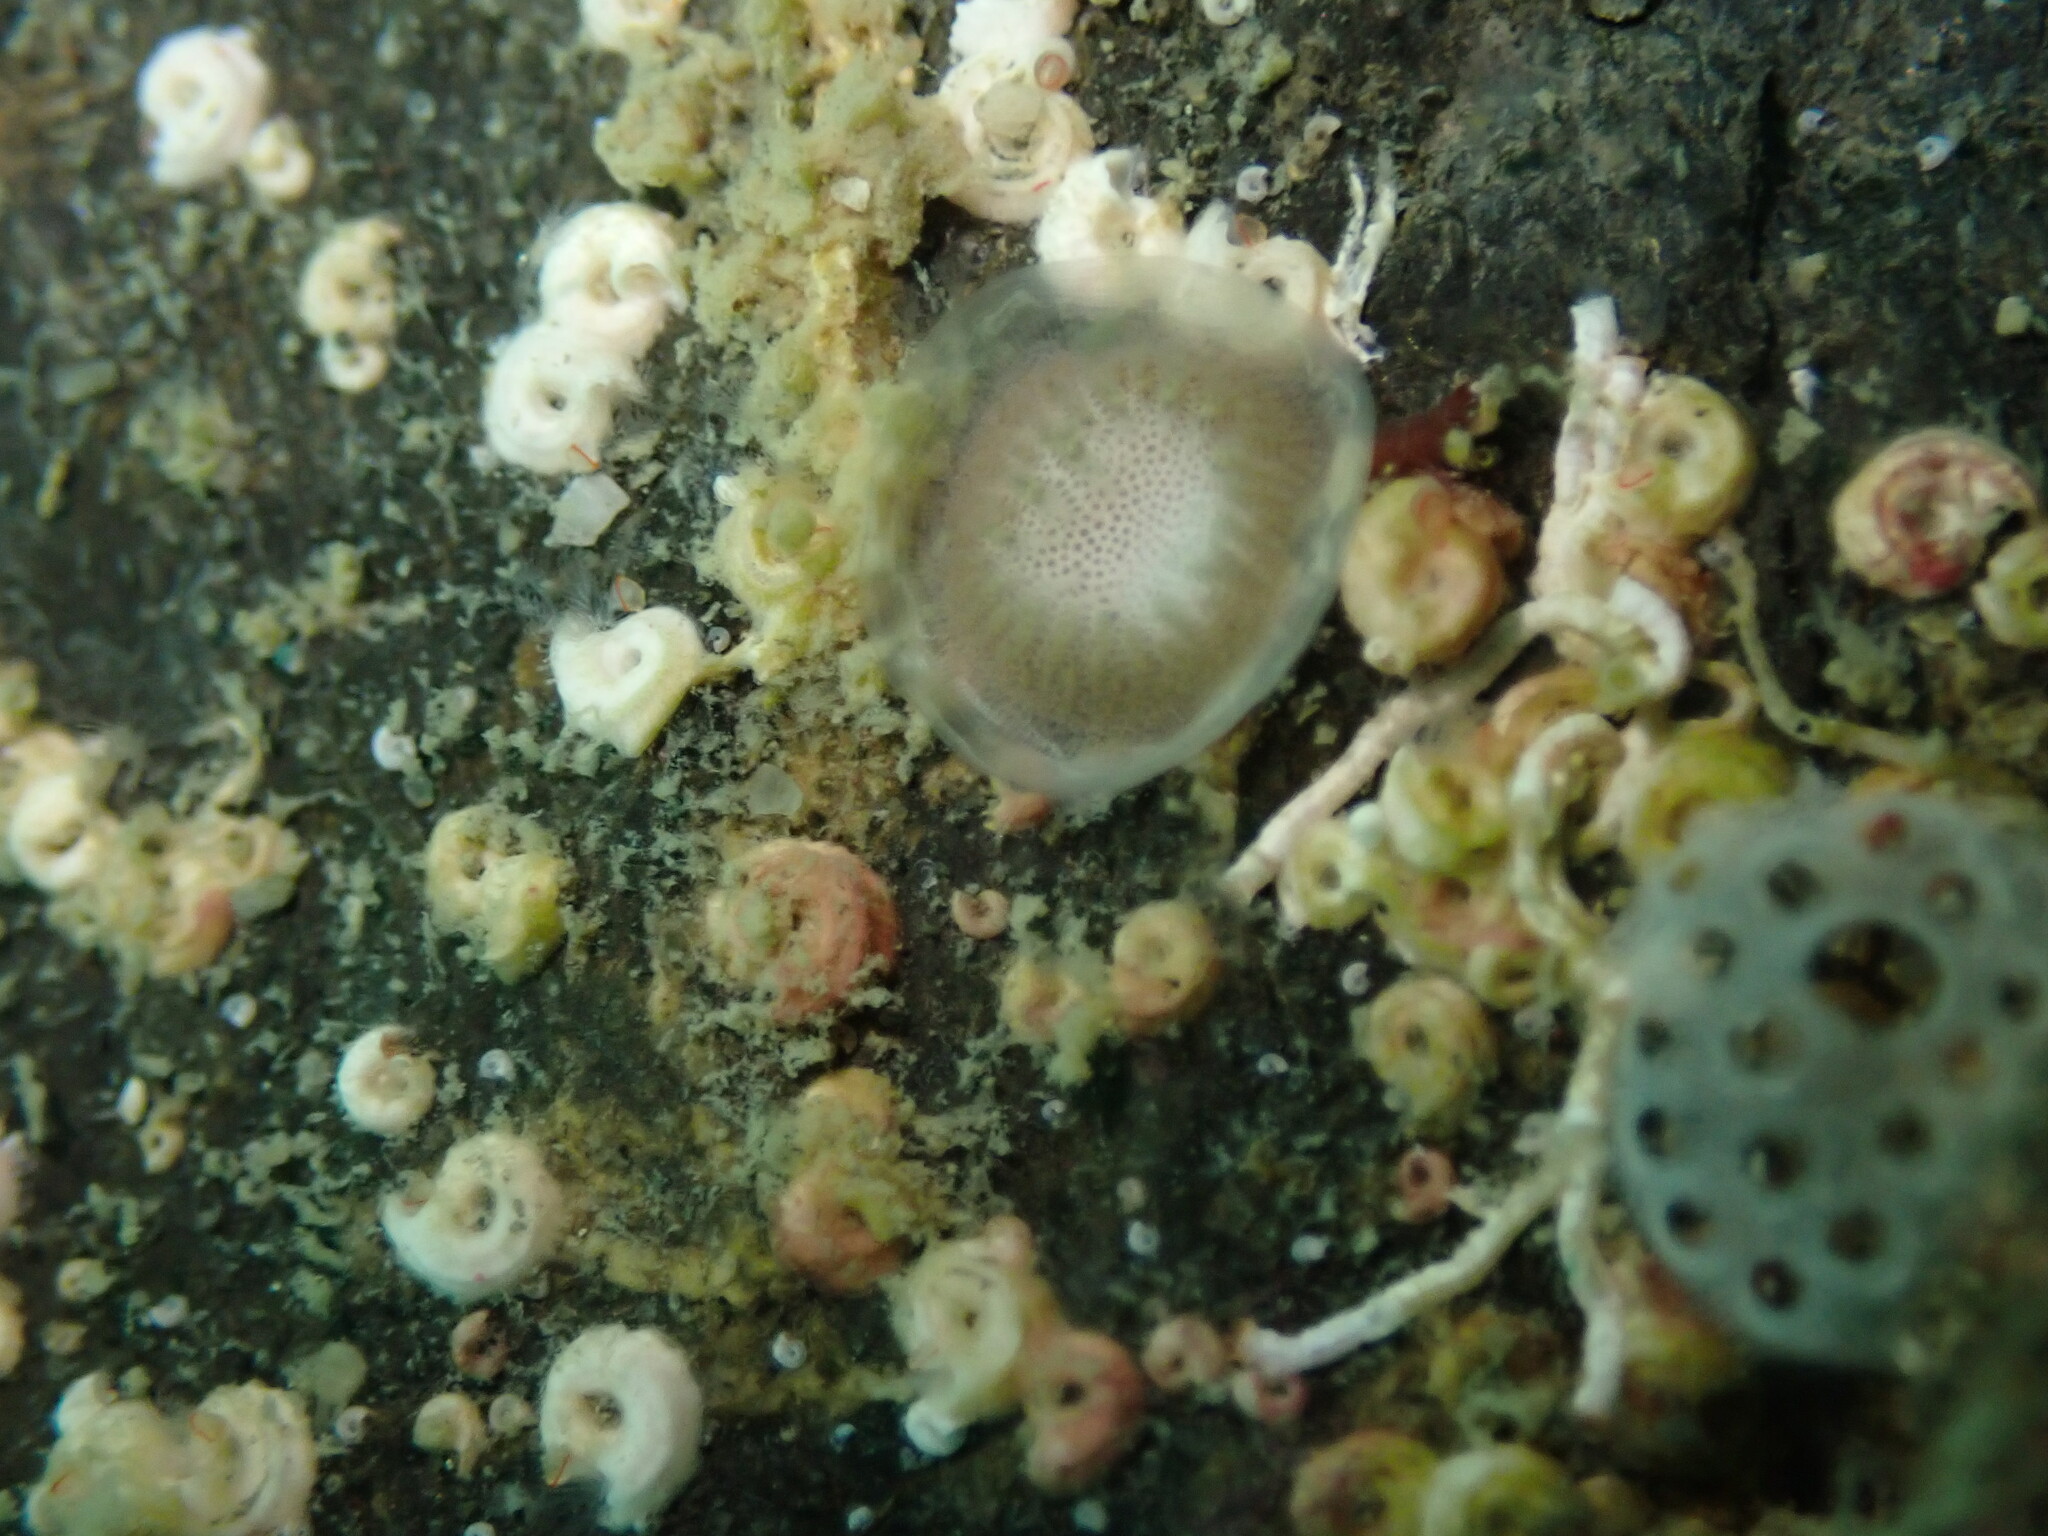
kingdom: Animalia
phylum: Bryozoa
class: Stenolaemata
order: Cyclostomatida
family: Lichenoporidae
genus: Disporella
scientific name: Disporella novaehollandiae
